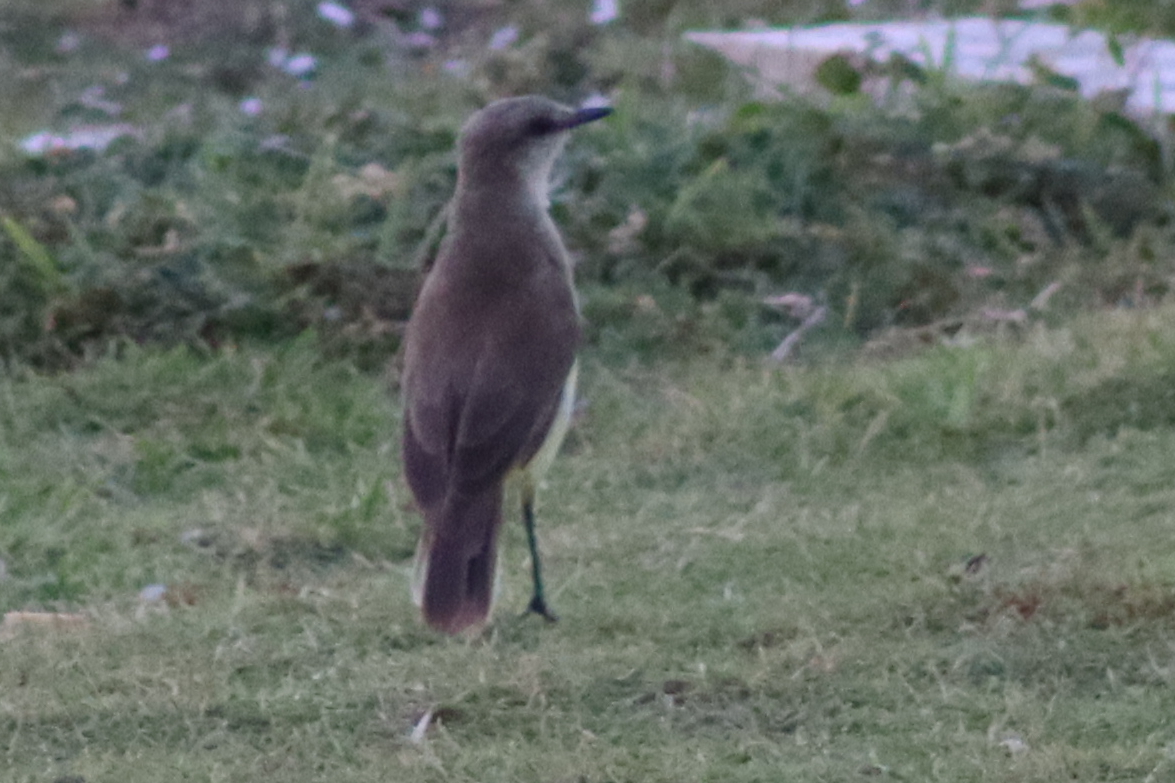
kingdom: Animalia
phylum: Chordata
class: Aves
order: Passeriformes
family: Tyrannidae
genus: Machetornis
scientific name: Machetornis rixosa
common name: Cattle tyrant
